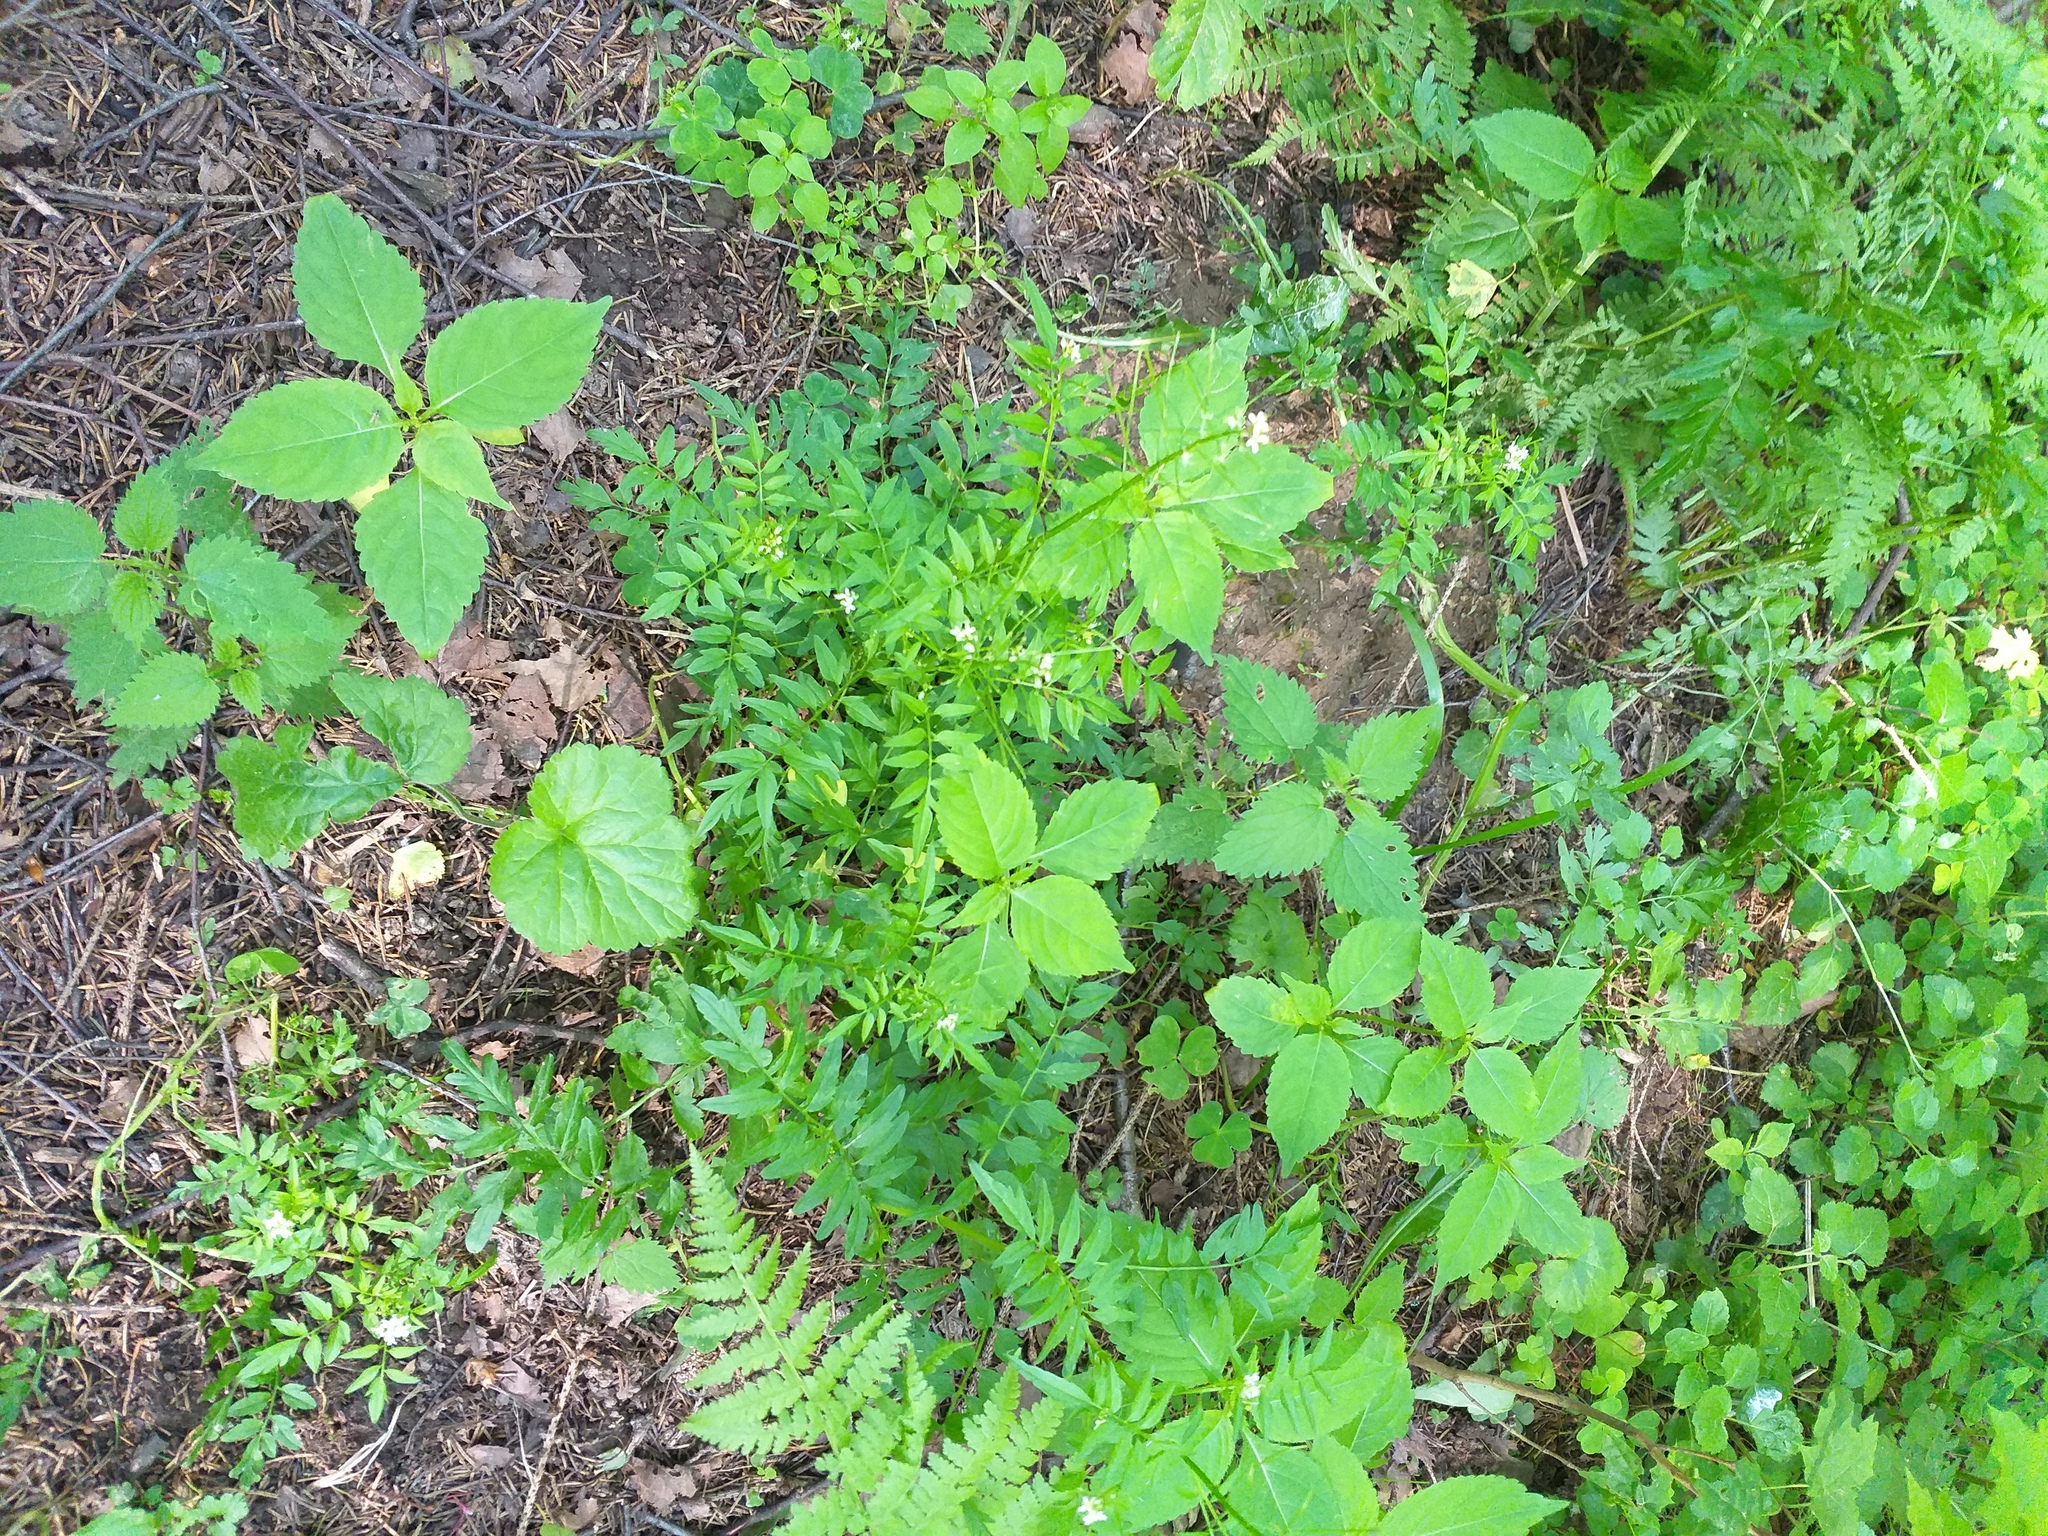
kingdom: Plantae
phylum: Tracheophyta
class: Magnoliopsida
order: Brassicales
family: Brassicaceae
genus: Cardamine
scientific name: Cardamine impatiens
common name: Narrow-leaved bitter-cress
